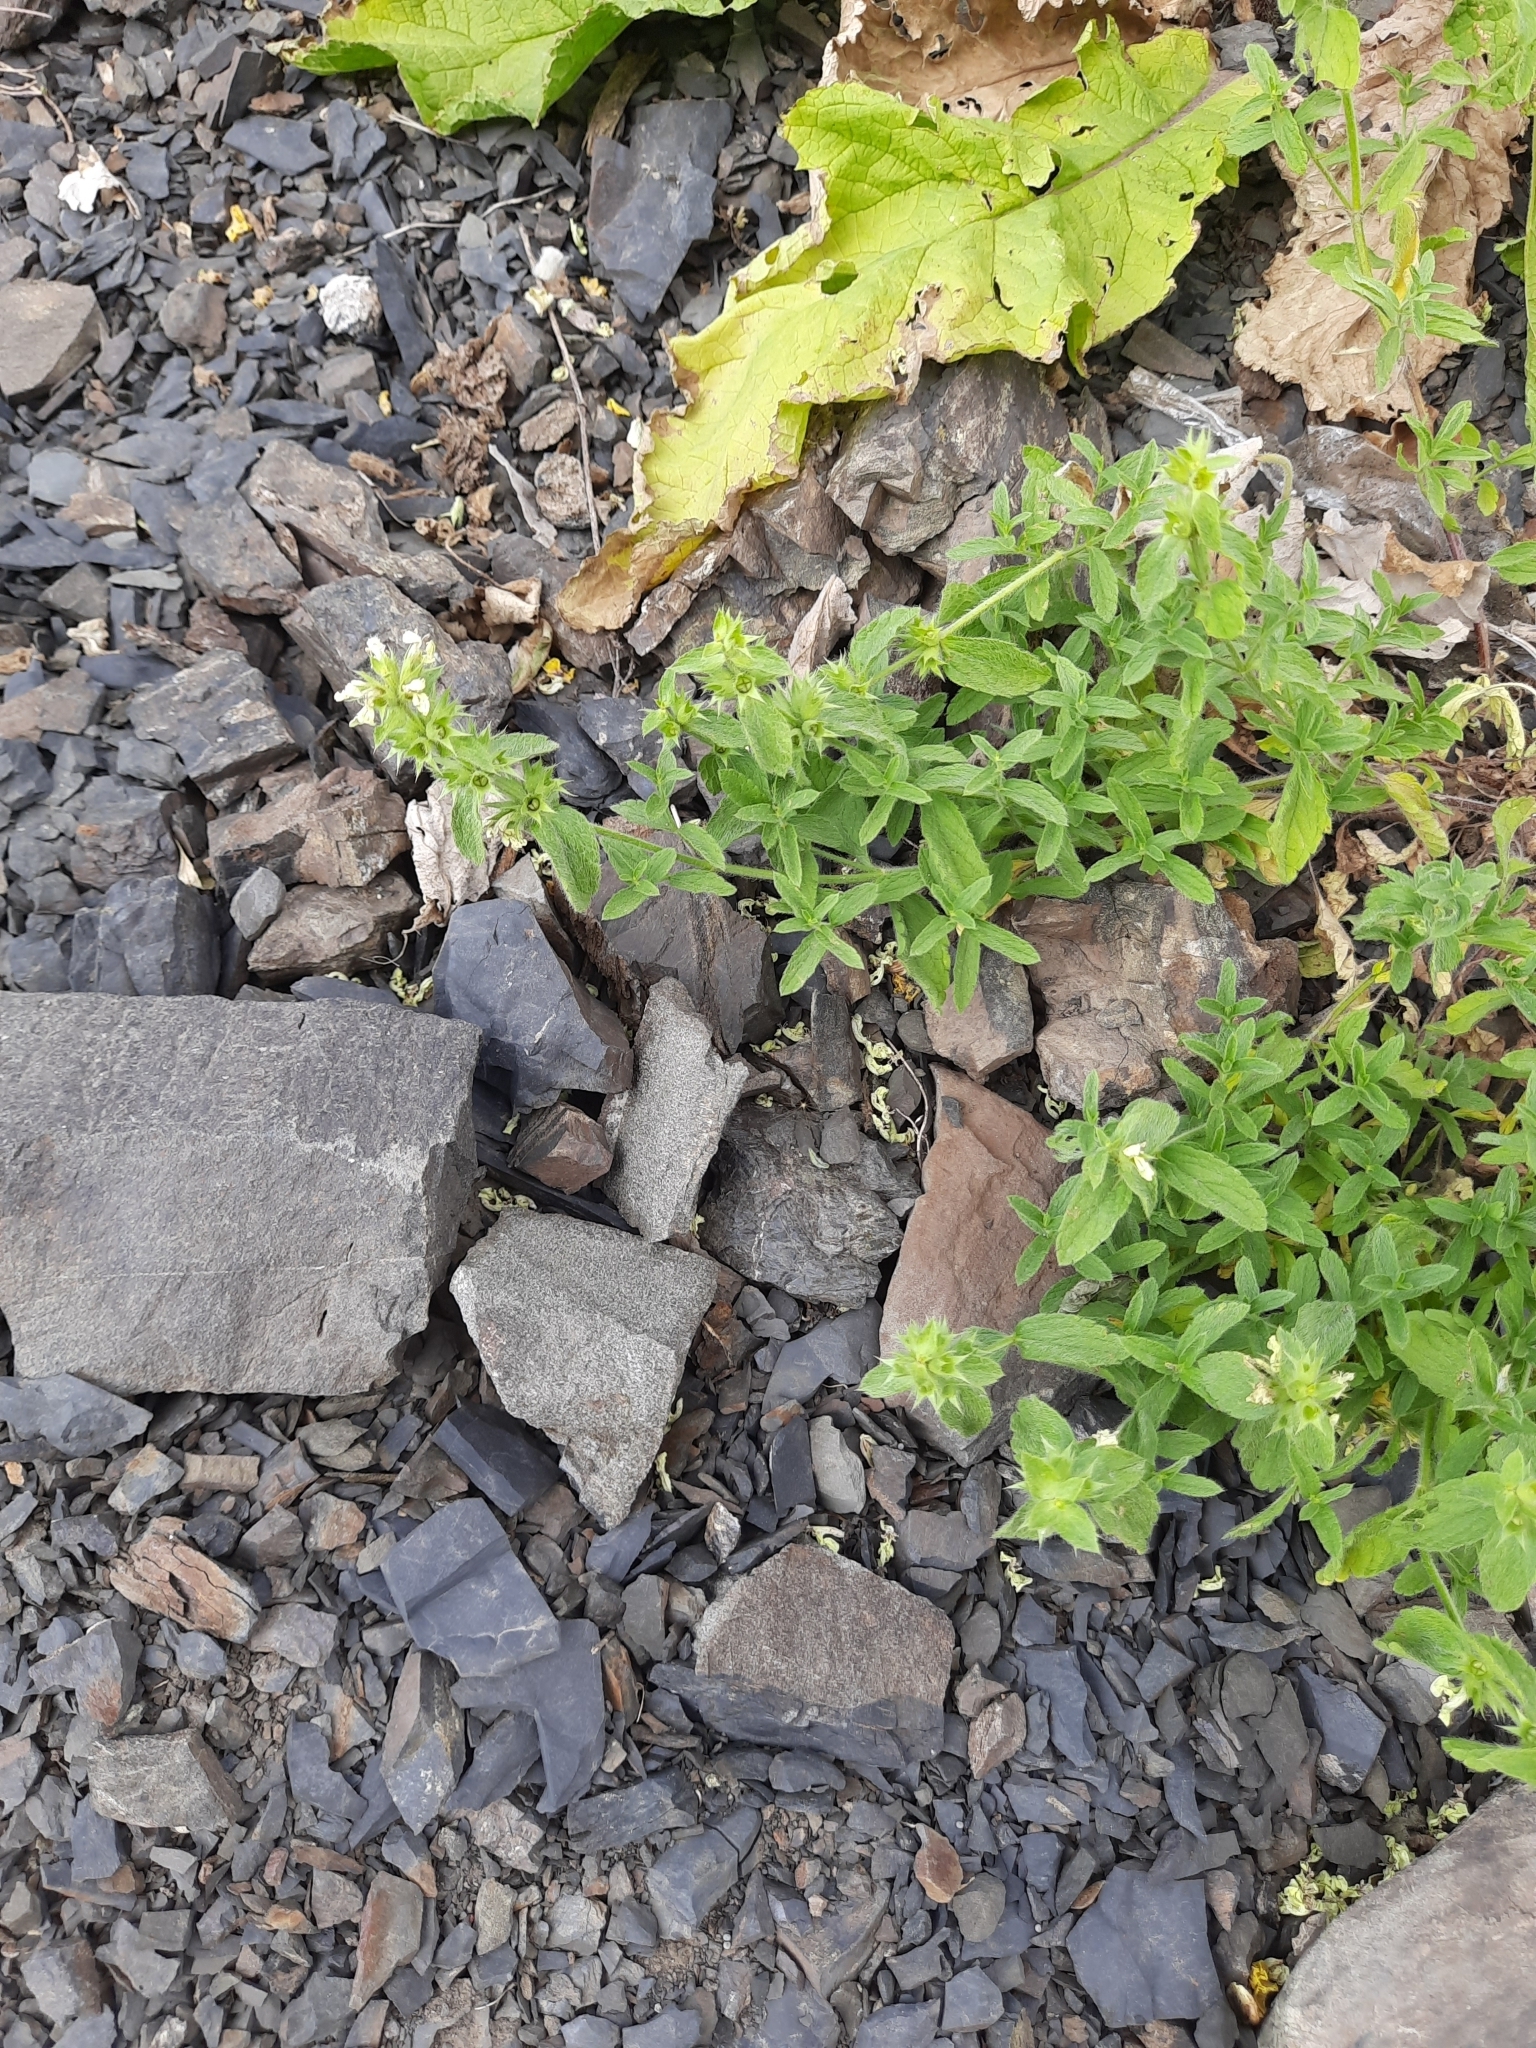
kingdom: Plantae
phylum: Tracheophyta
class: Magnoliopsida
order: Lamiales
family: Lamiaceae
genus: Stachys
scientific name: Stachys atherocalyx
